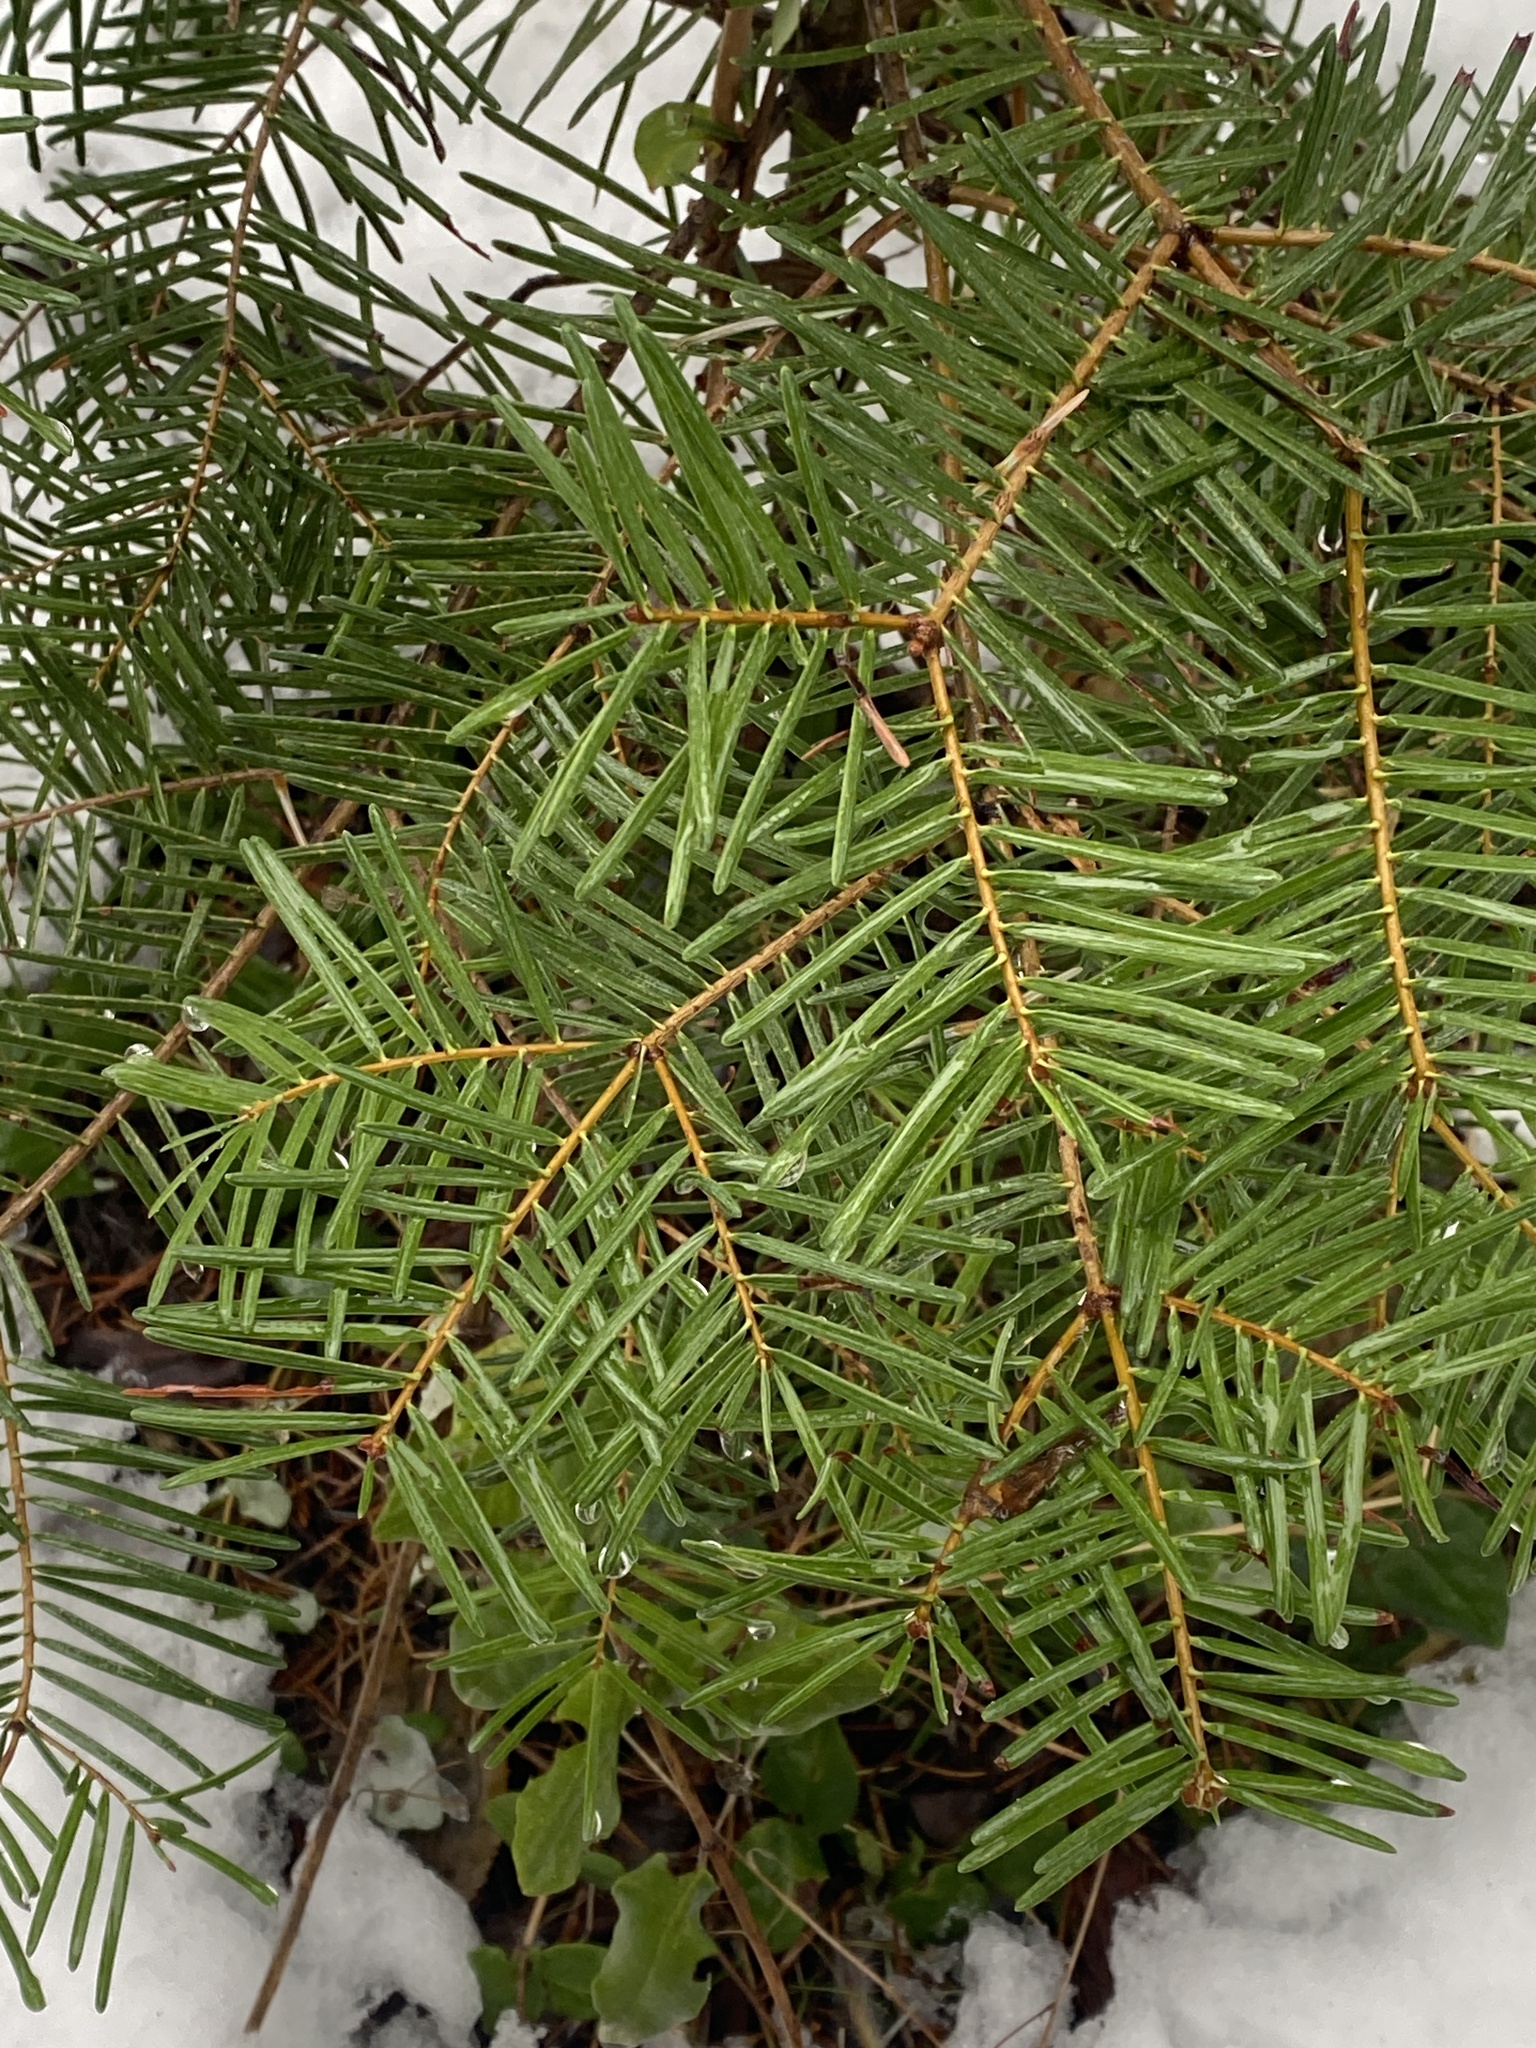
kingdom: Plantae
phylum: Tracheophyta
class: Pinopsida
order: Pinales
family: Pinaceae
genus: Abies
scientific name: Abies concolor
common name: Colorado fir
